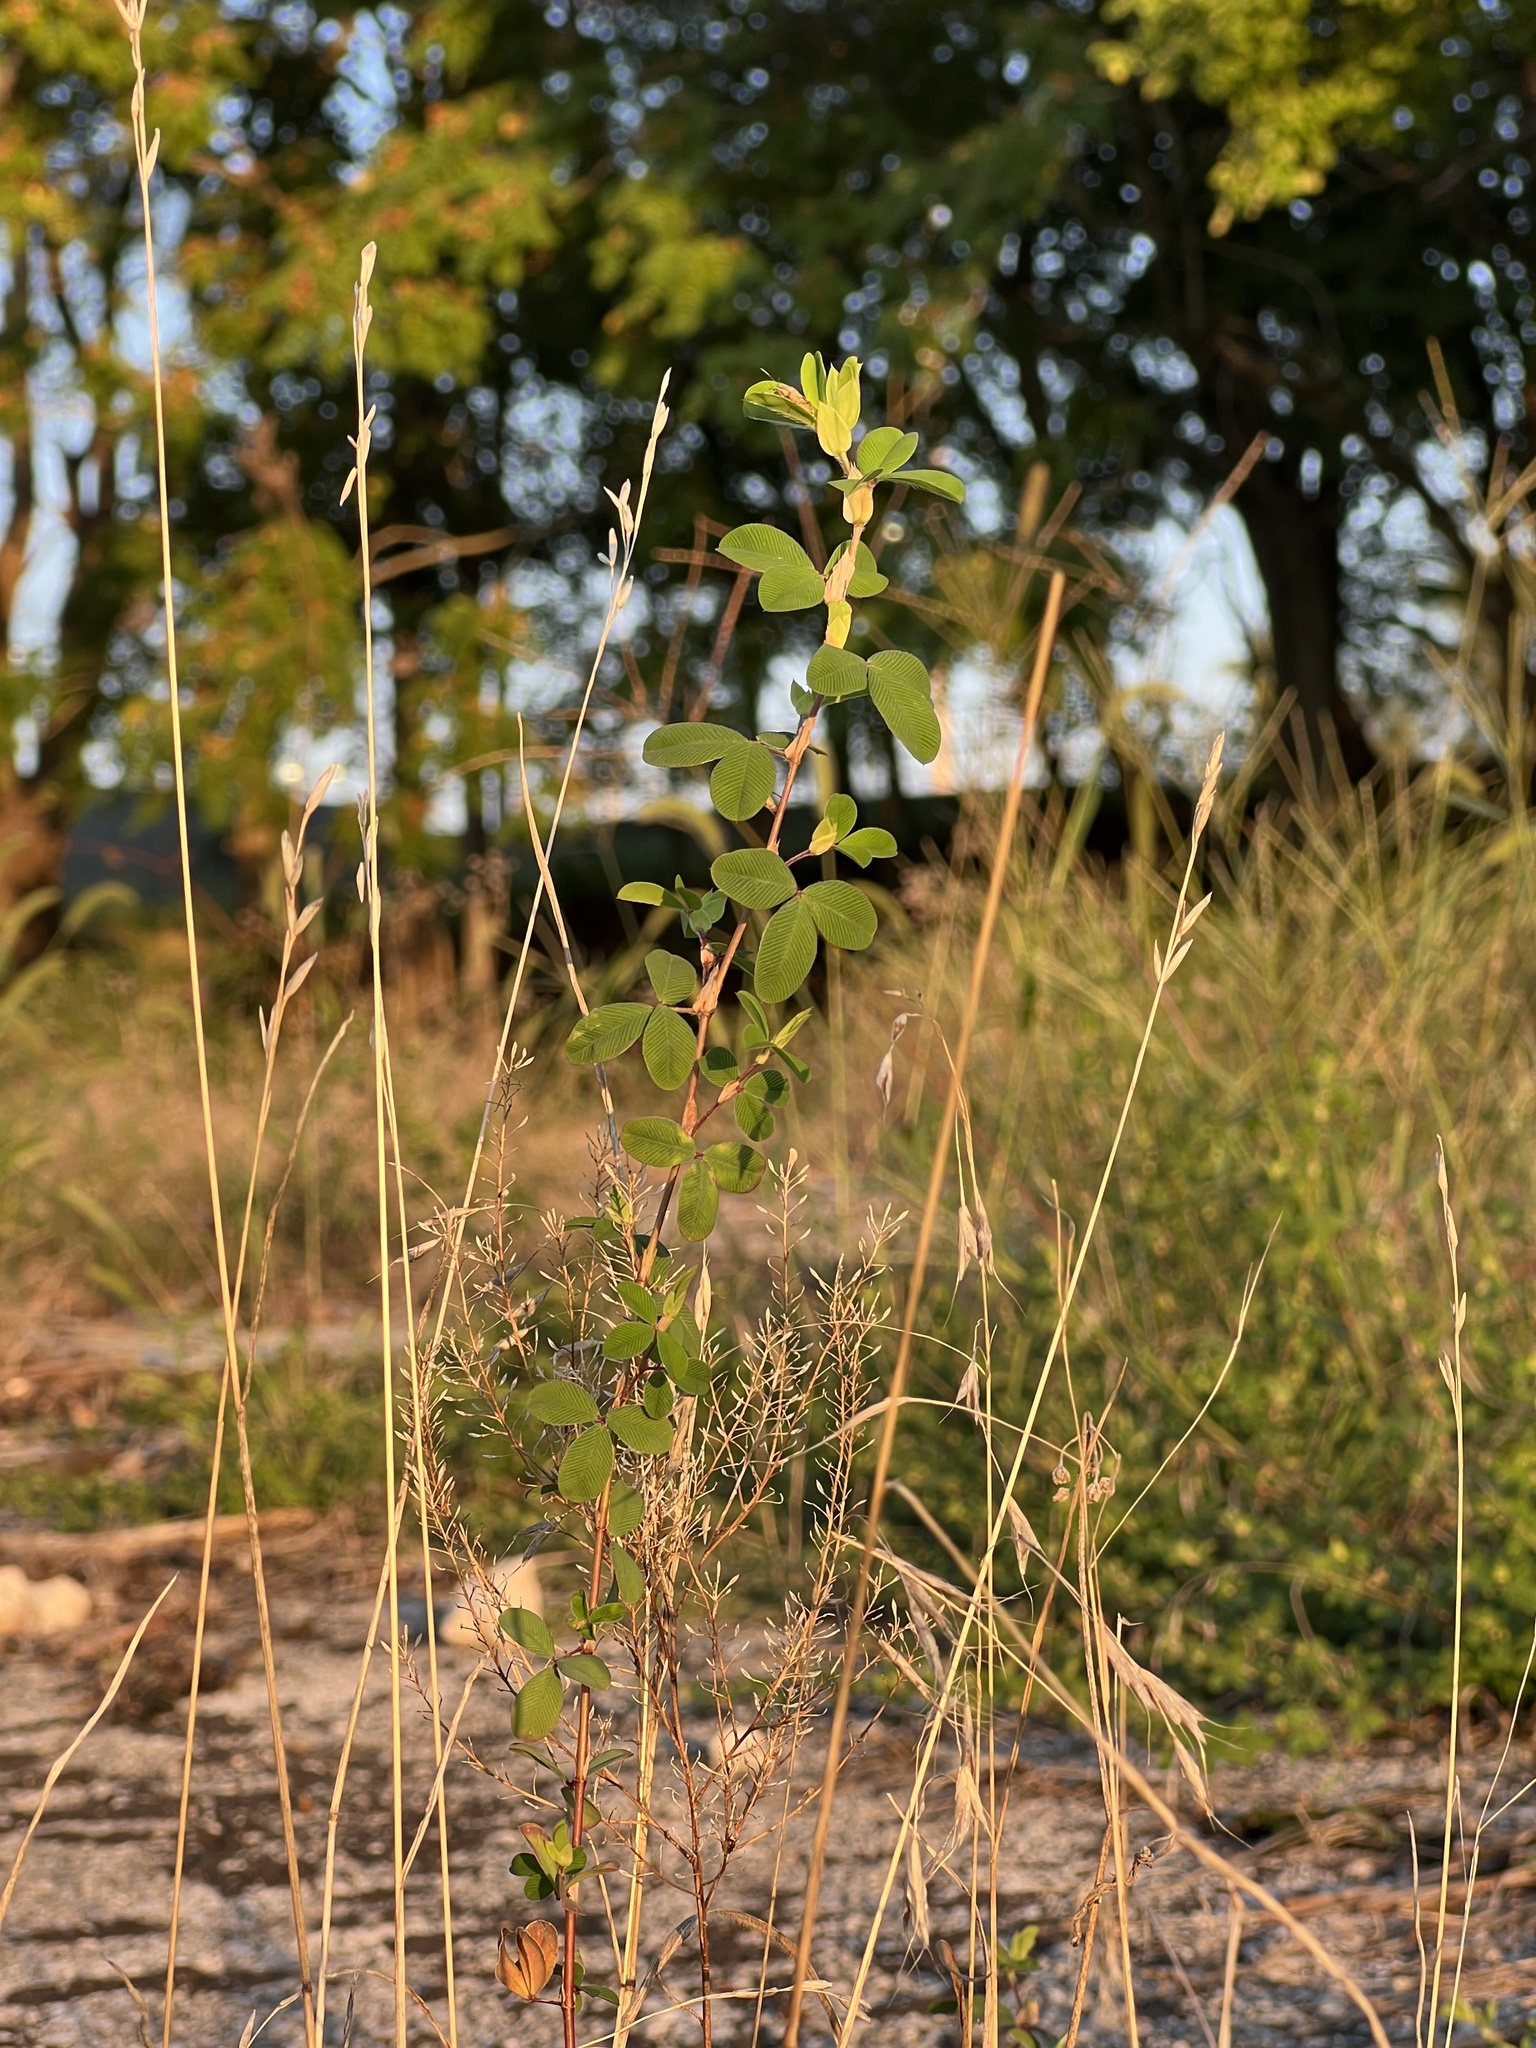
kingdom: Plantae
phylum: Tracheophyta
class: Magnoliopsida
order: Fabales
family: Fabaceae
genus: Kummerowia
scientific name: Kummerowia stipulacea
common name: Korean clover
